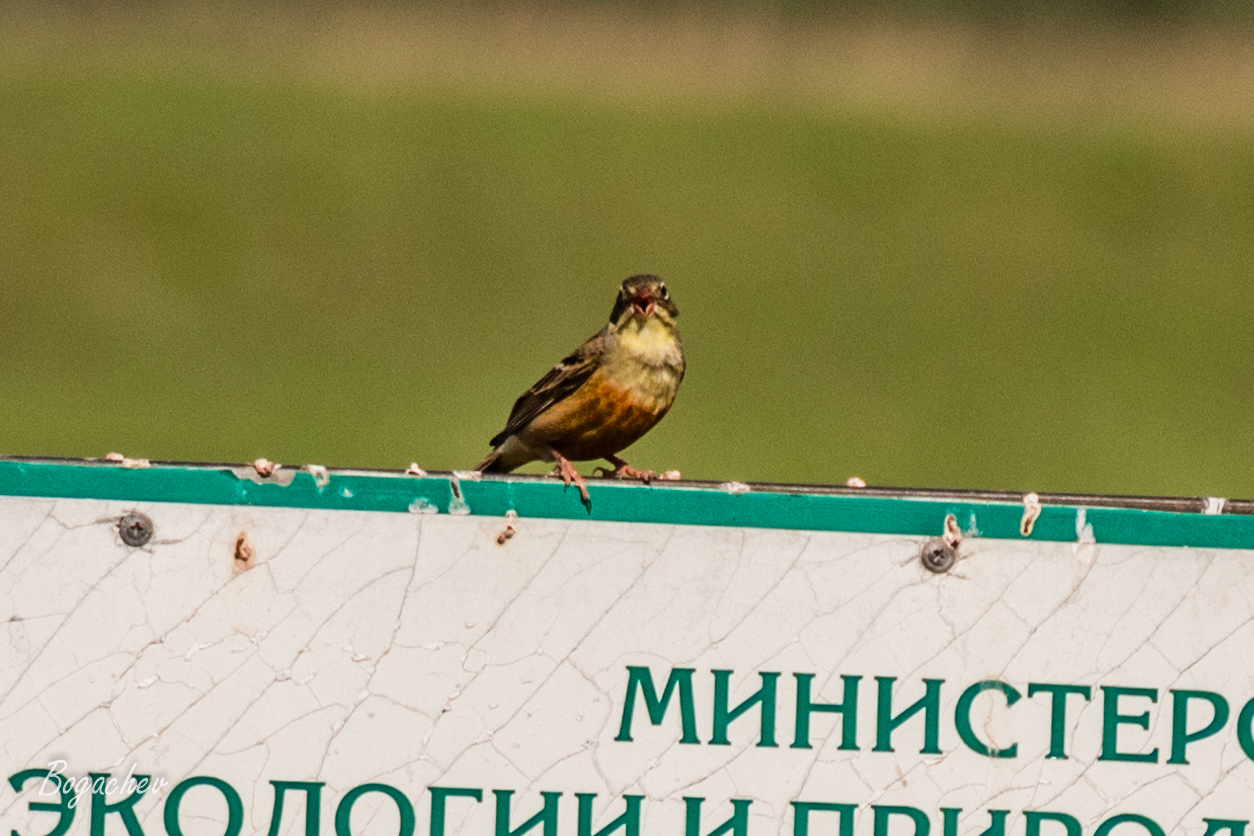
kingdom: Animalia
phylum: Chordata
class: Aves
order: Passeriformes
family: Emberizidae
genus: Emberiza
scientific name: Emberiza hortulana
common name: Ortolan bunting
